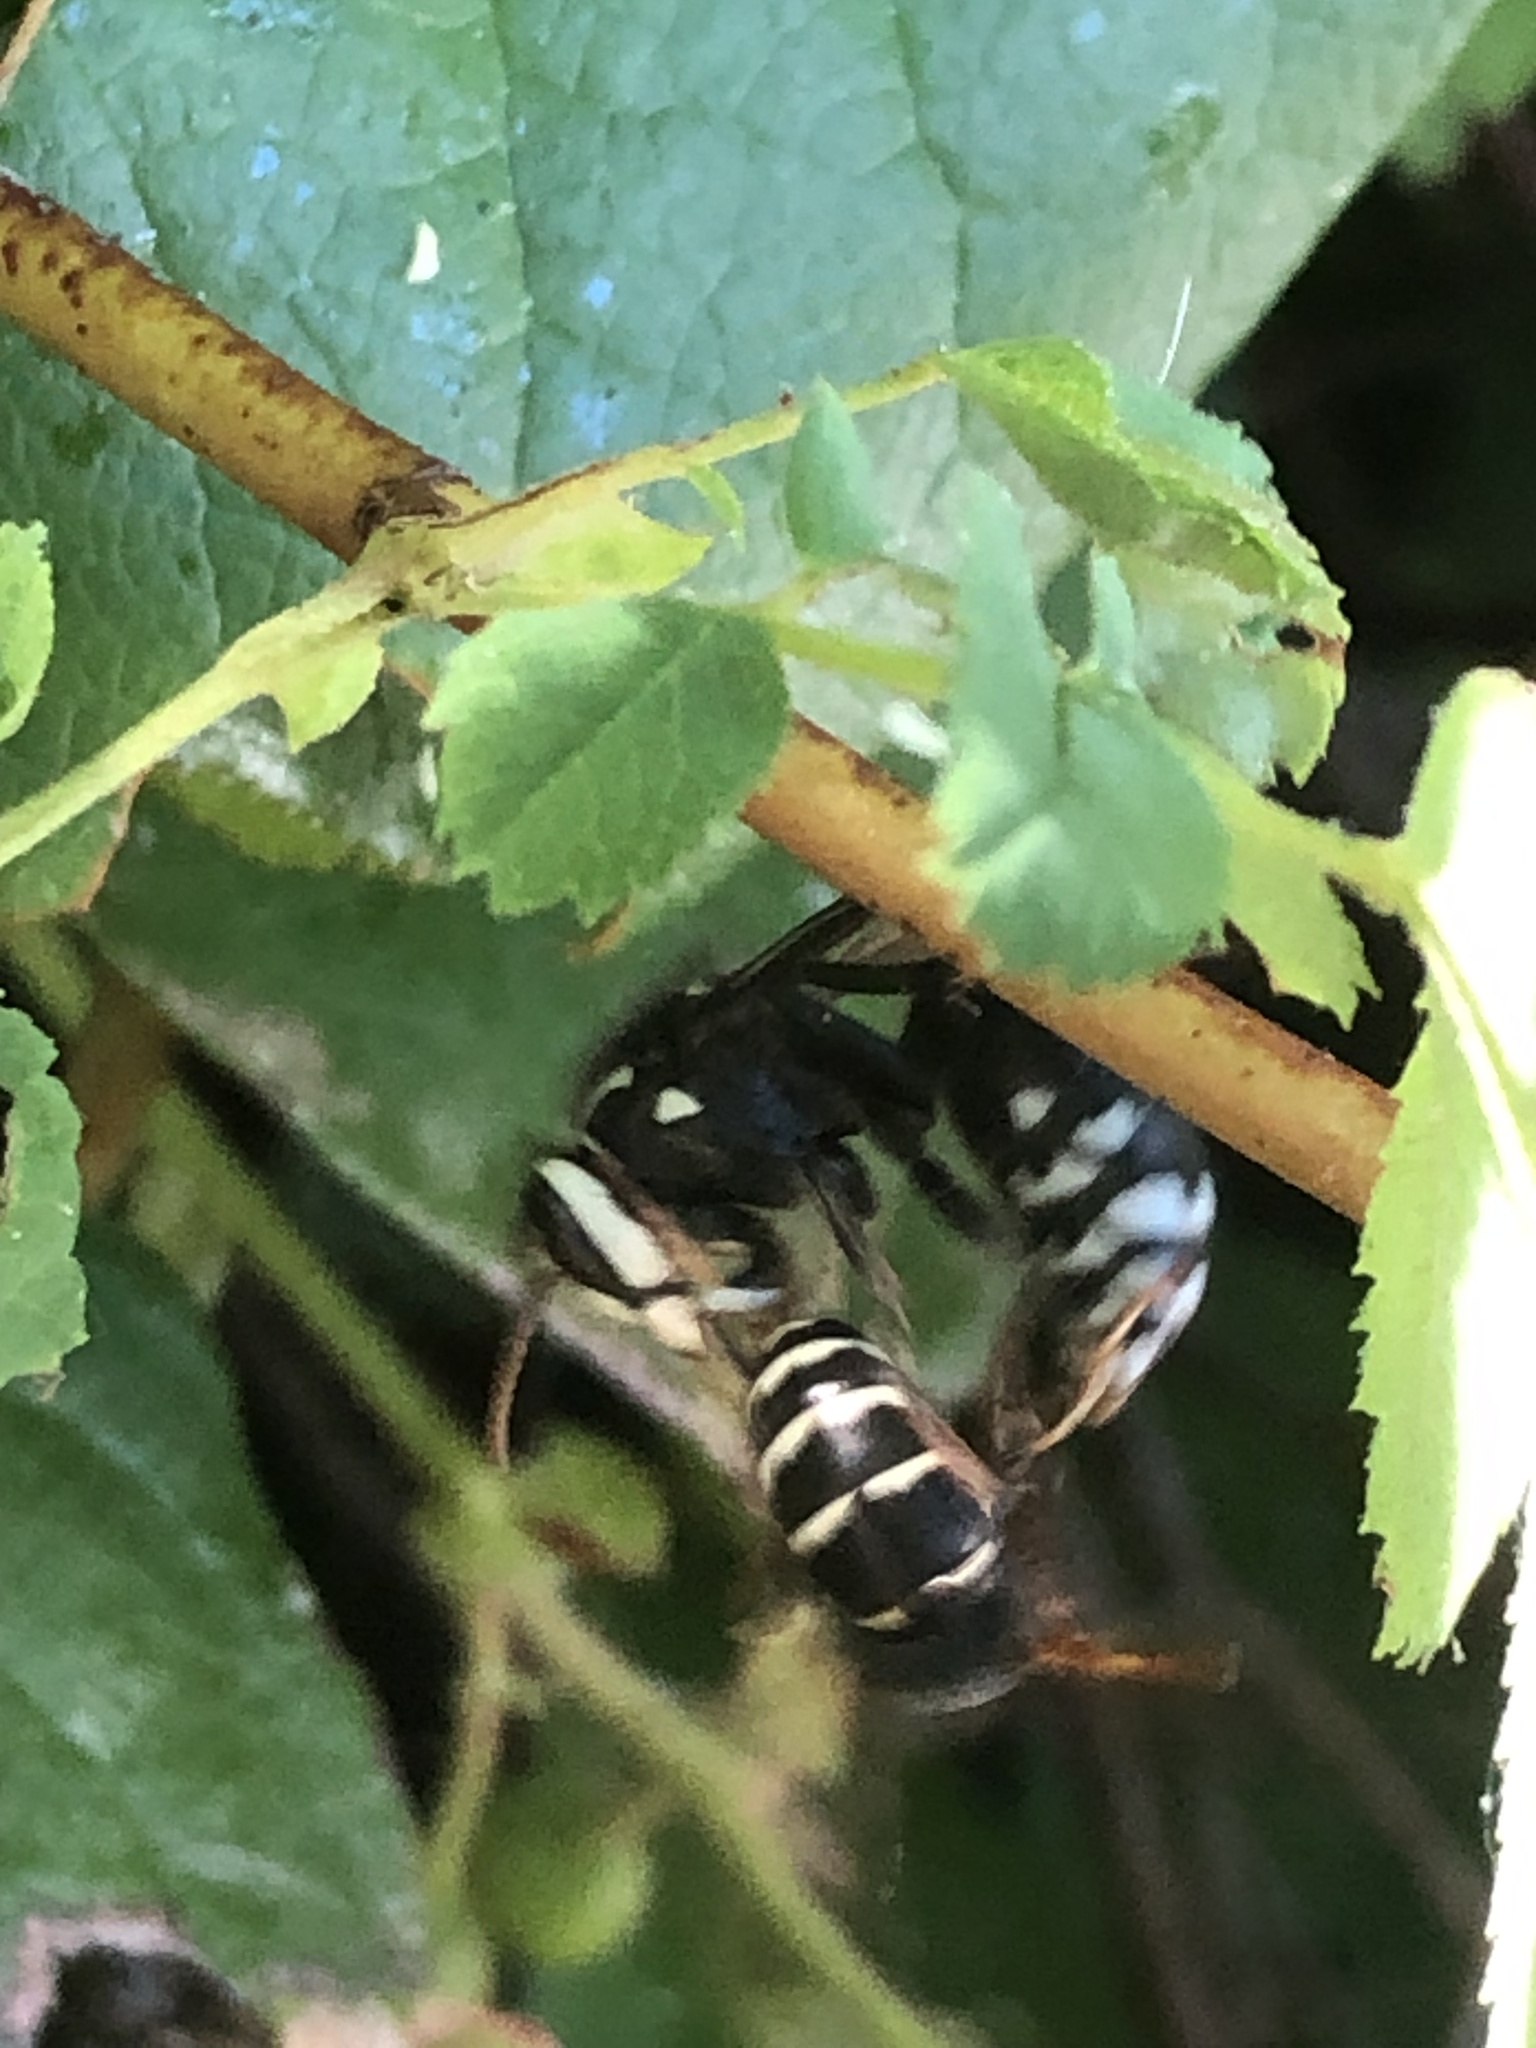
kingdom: Animalia
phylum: Arthropoda
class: Insecta
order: Hymenoptera
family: Vespidae
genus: Vespula
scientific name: Vespula consobrina
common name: Blackjacket
